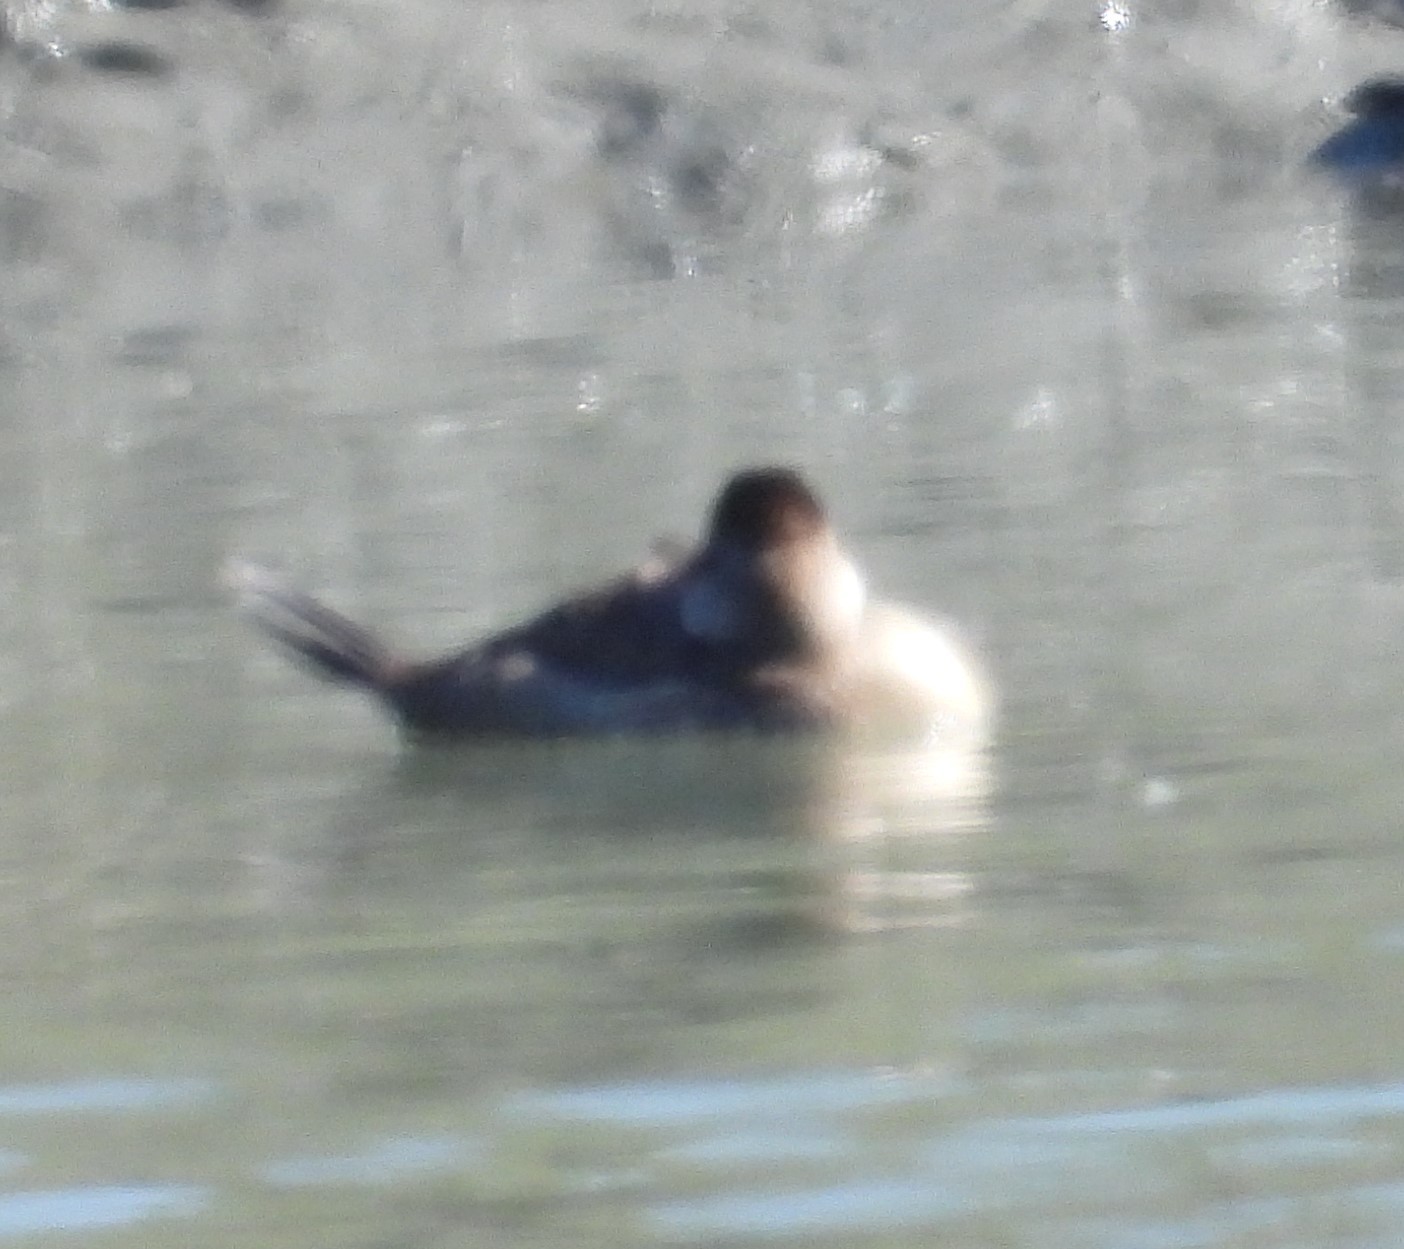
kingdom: Animalia
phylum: Chordata
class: Aves
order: Anseriformes
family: Anatidae
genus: Oxyura
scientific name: Oxyura jamaicensis
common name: Ruddy duck
